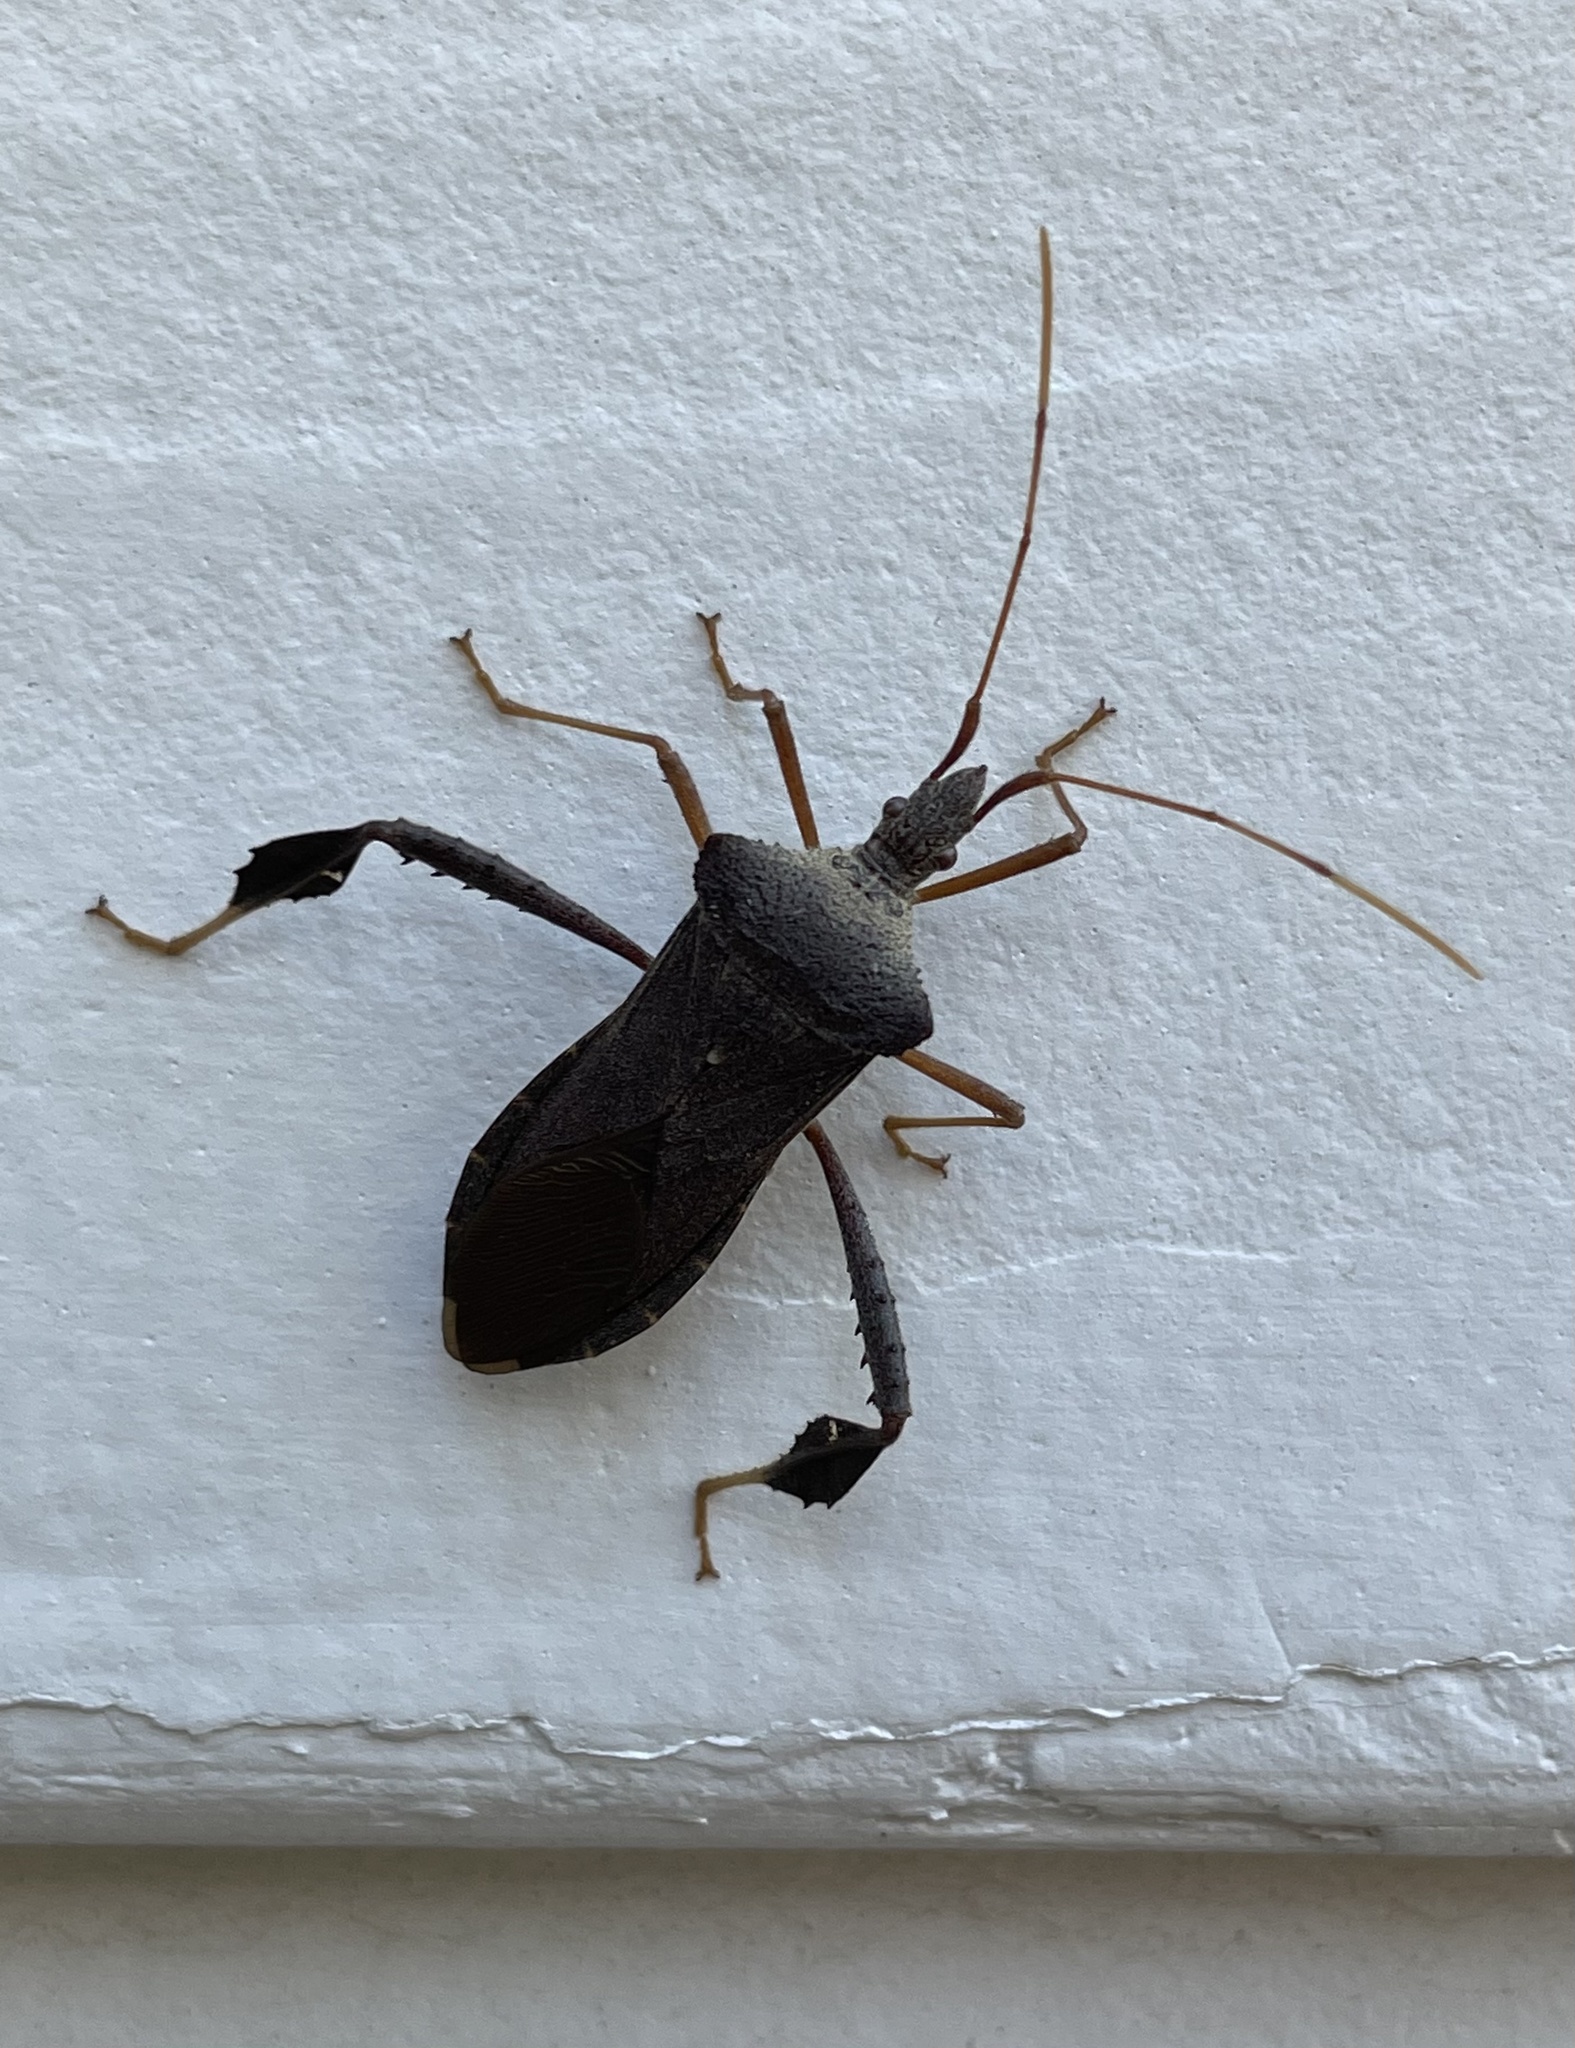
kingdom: Animalia
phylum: Arthropoda
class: Insecta
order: Hemiptera
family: Coreidae
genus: Leptoglossus
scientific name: Leptoglossus fulvicornis
